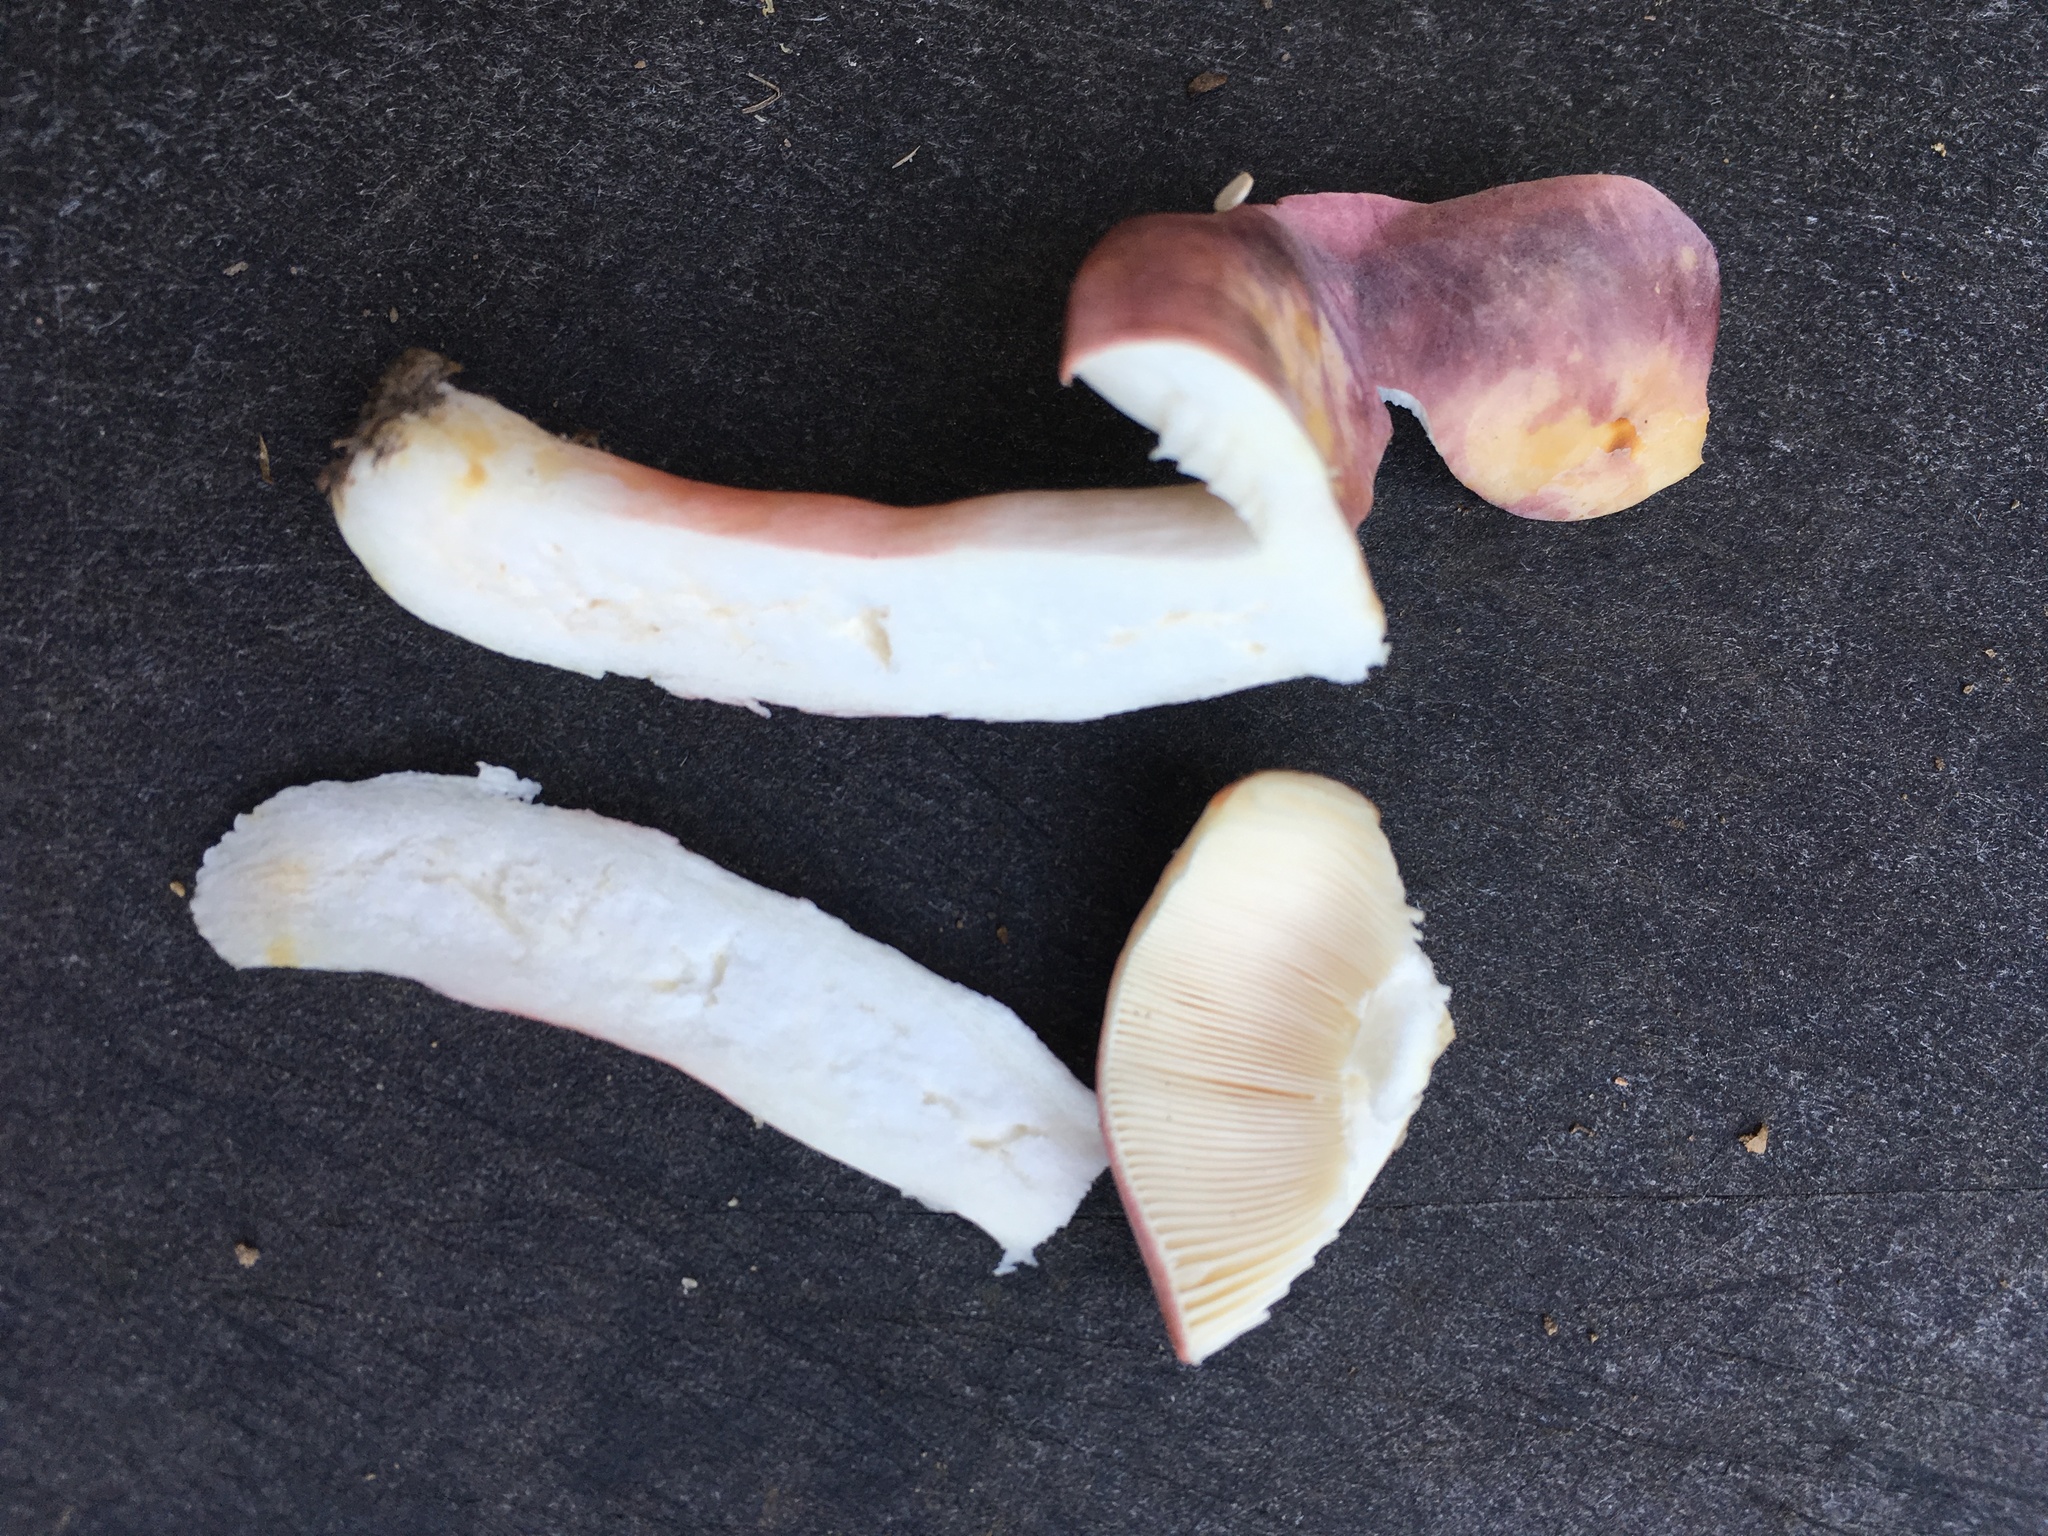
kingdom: Fungi
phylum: Basidiomycota
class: Agaricomycetes
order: Russulales
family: Russulaceae
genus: Russula
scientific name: Russula mariae
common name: Purple-bloom russula
